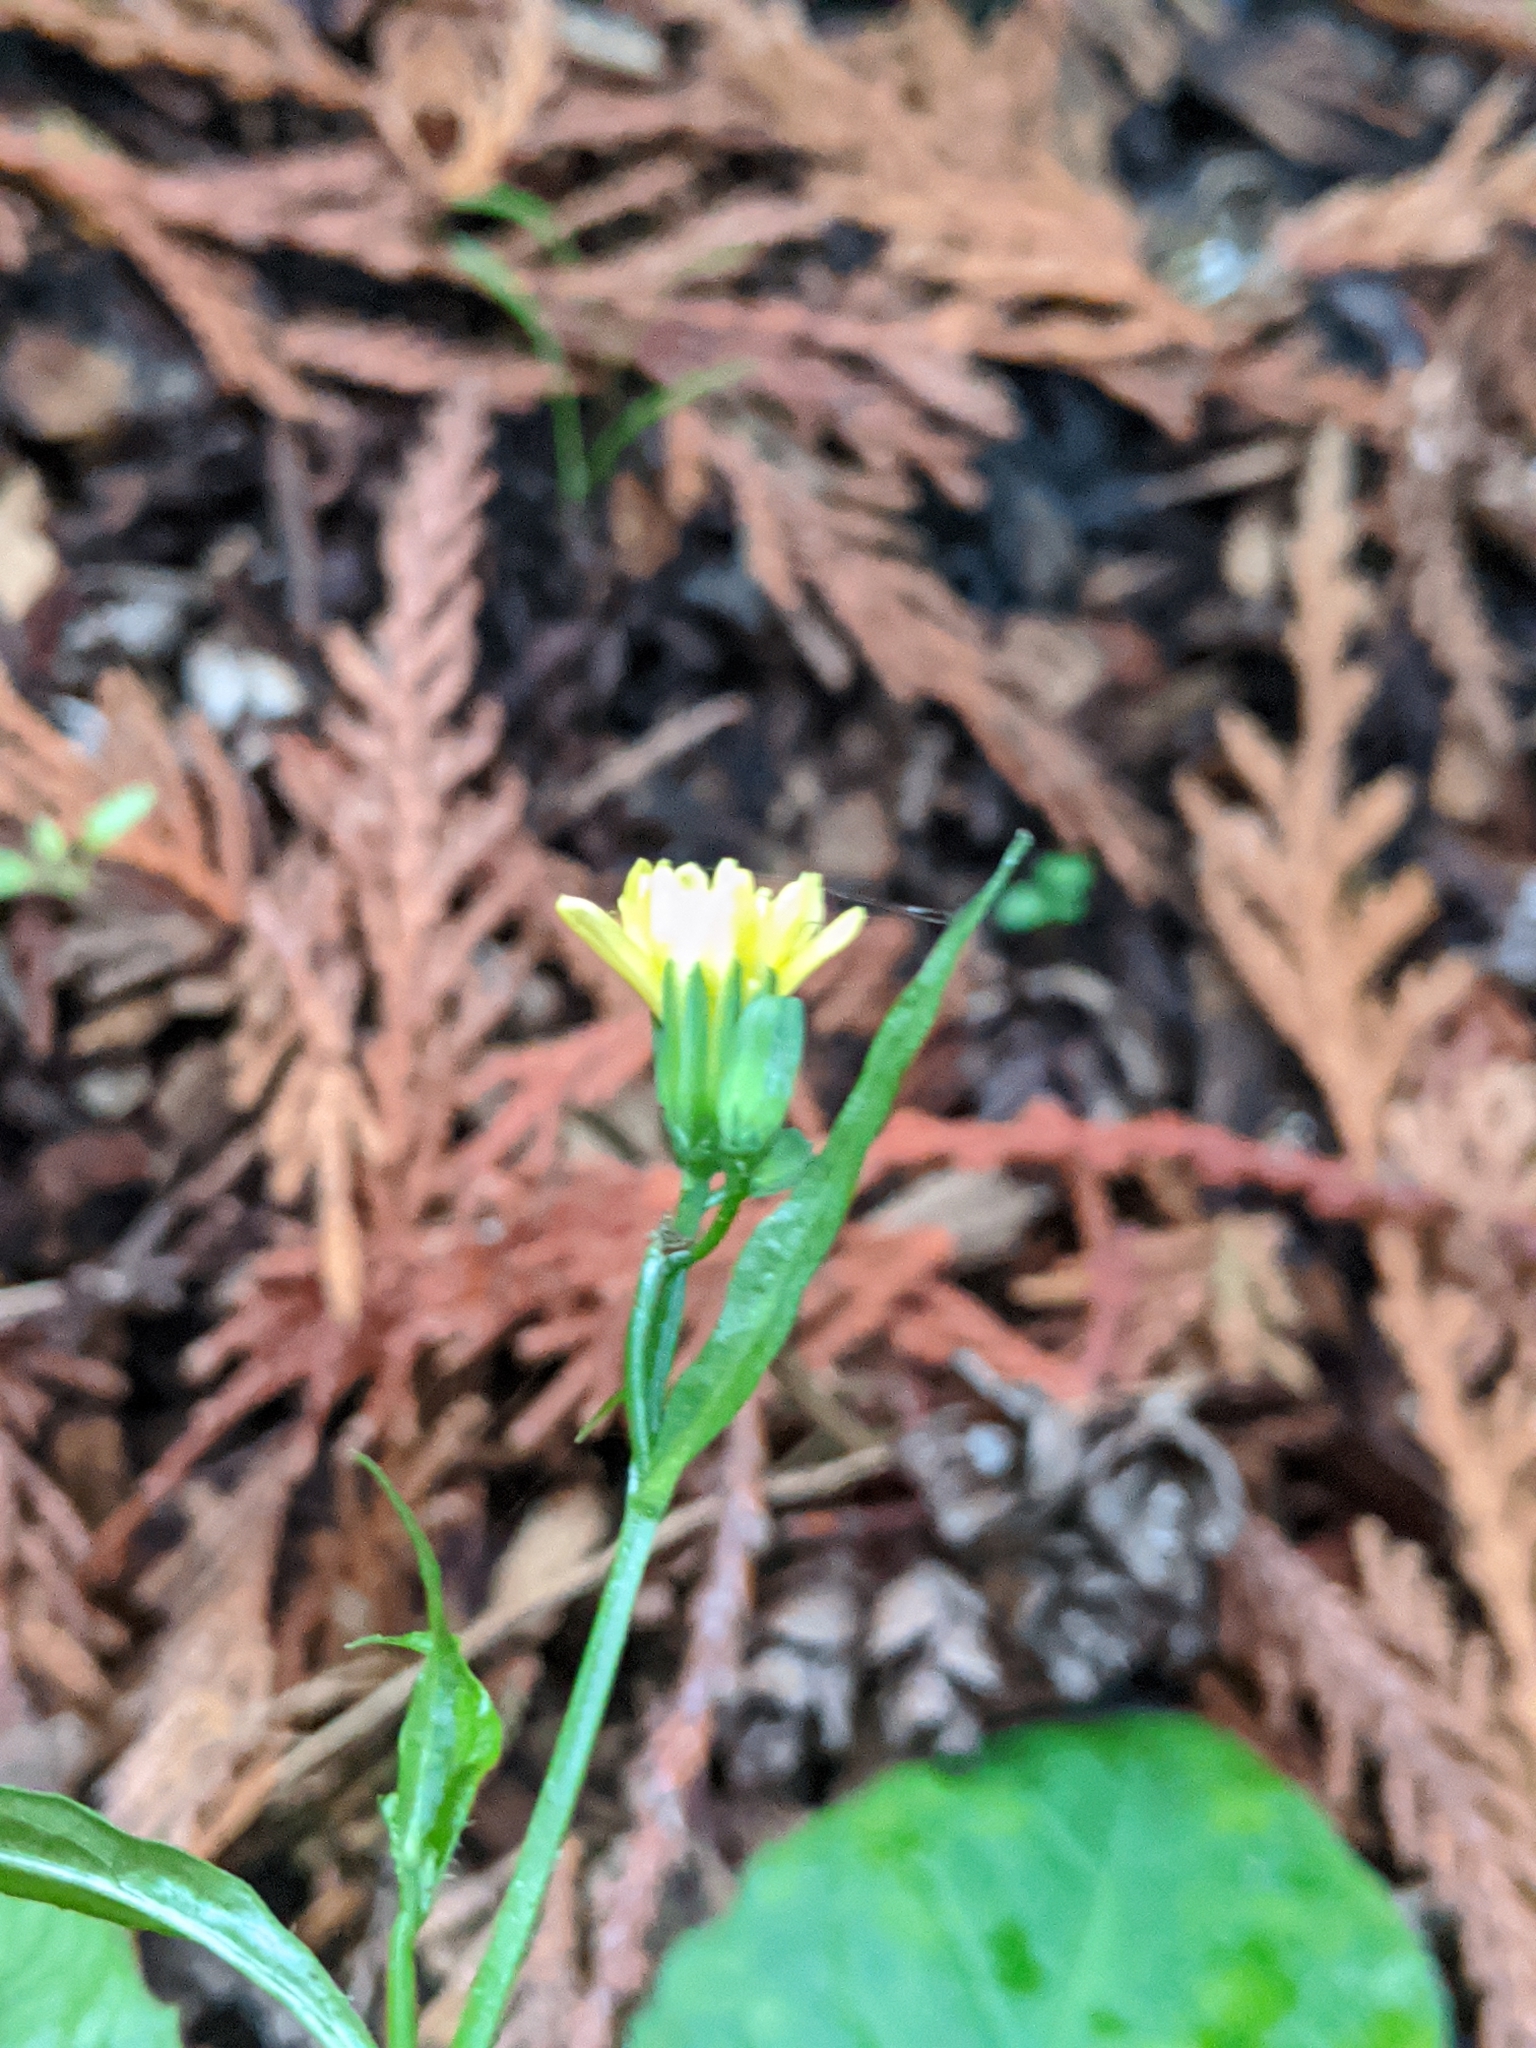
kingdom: Plantae
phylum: Tracheophyta
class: Magnoliopsida
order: Asterales
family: Asteraceae
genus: Lapsana
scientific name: Lapsana communis
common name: Nipplewort
